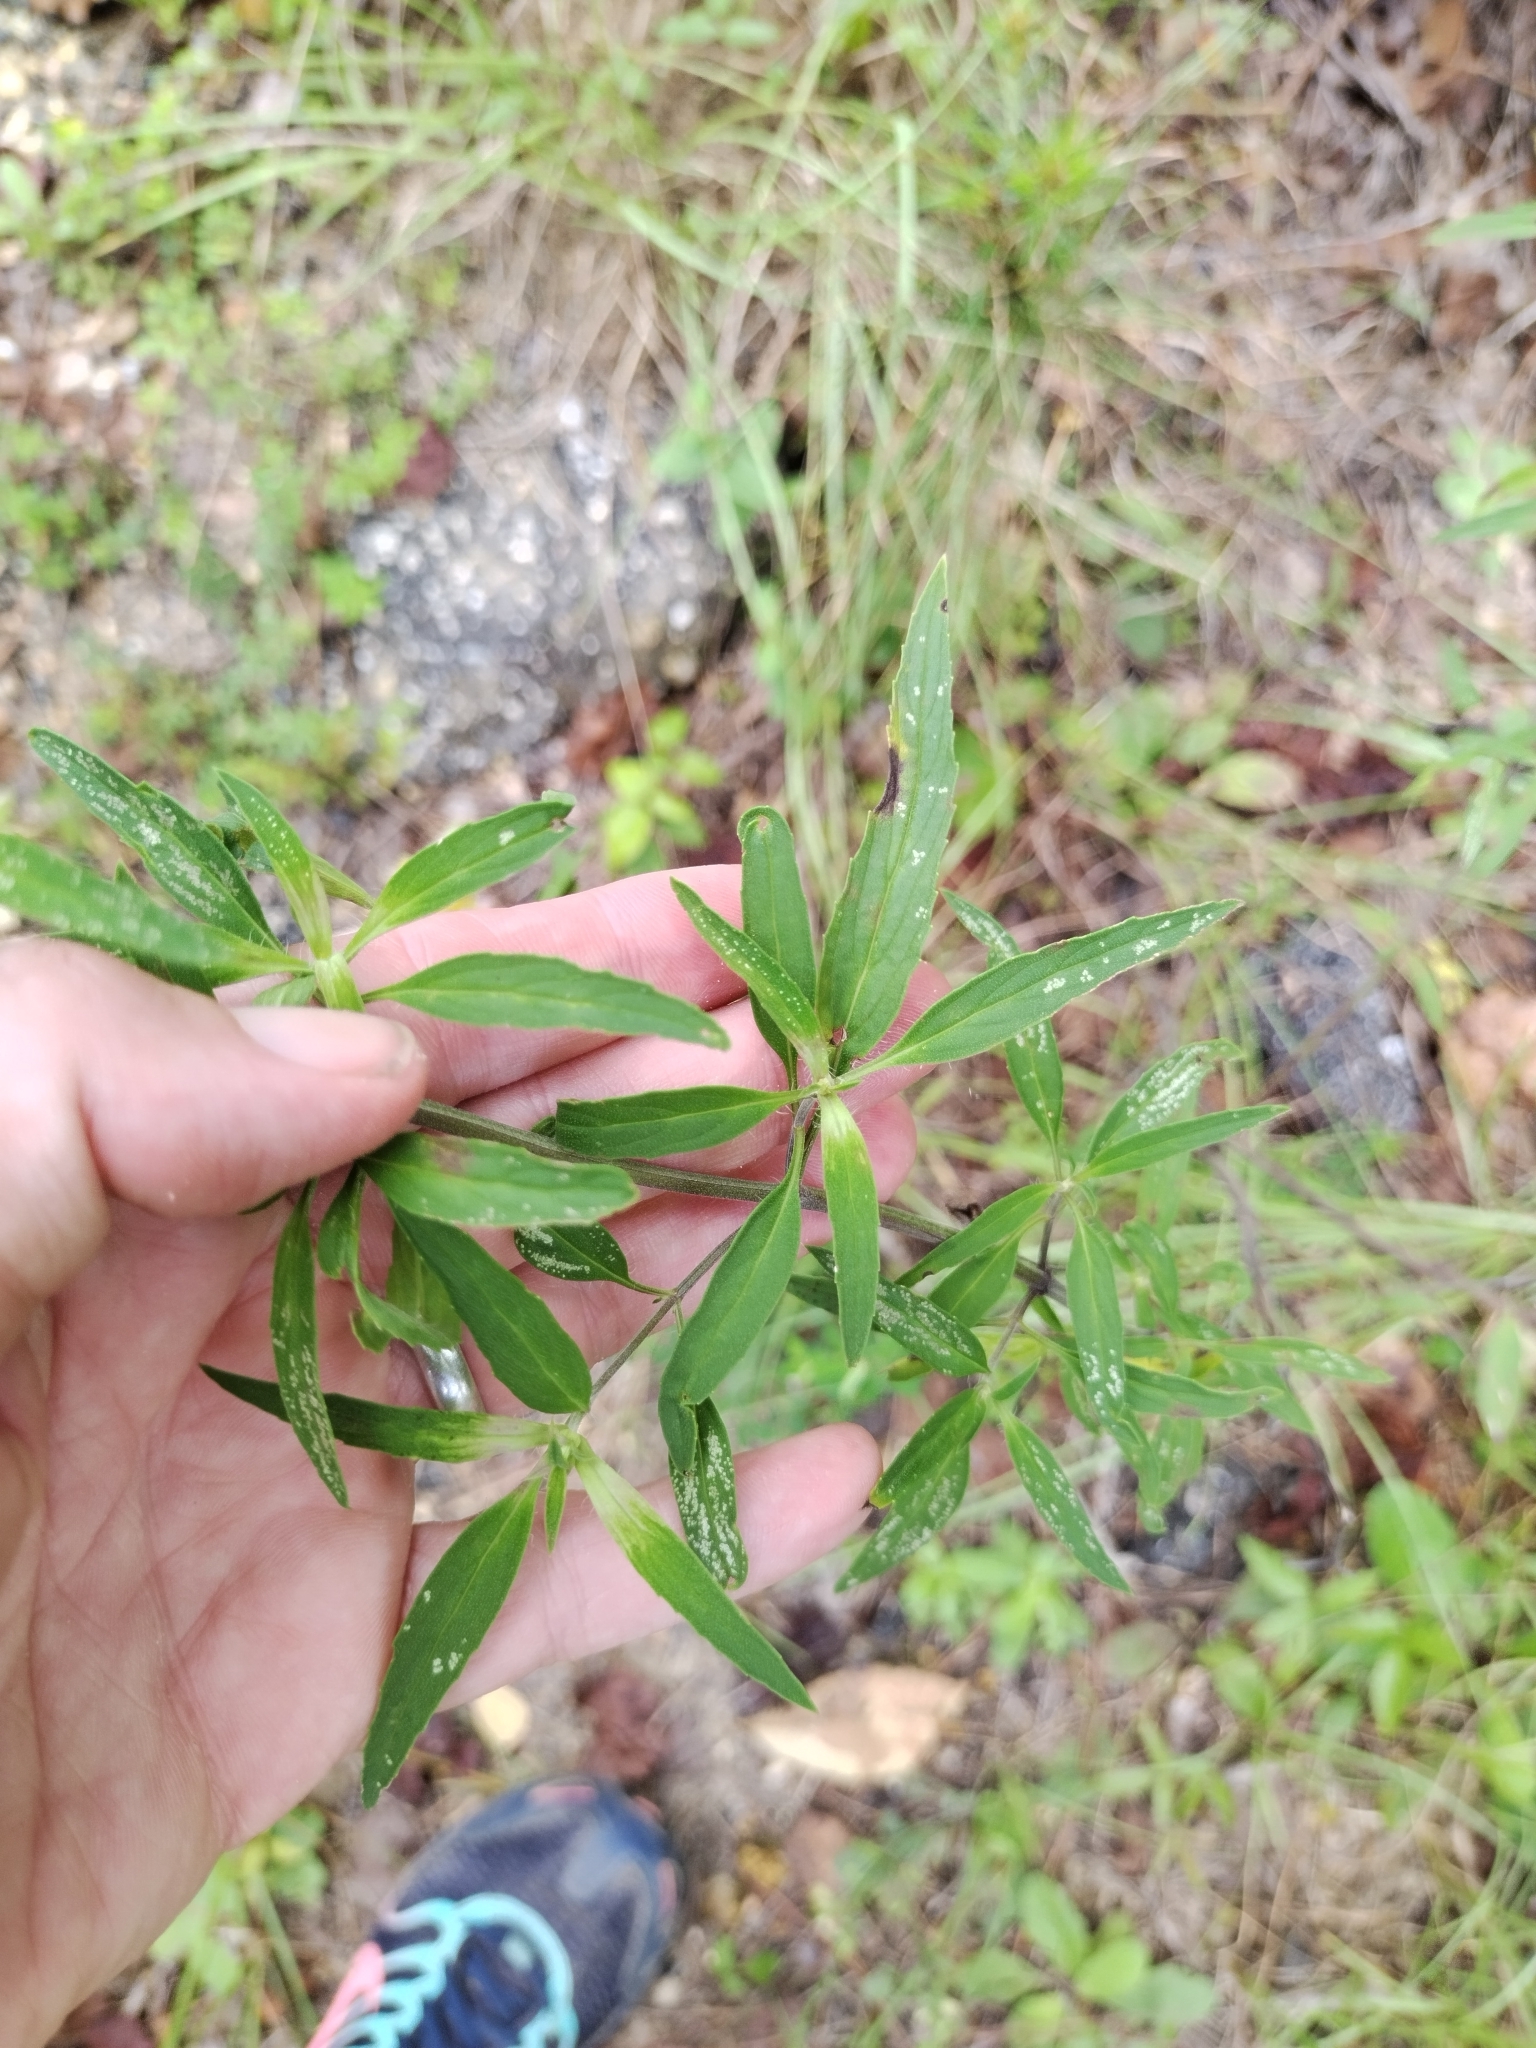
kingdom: Plantae
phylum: Tracheophyta
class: Magnoliopsida
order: Lamiales
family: Lamiaceae
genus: Monarda
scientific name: Monarda punctata
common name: Dotted monarda
